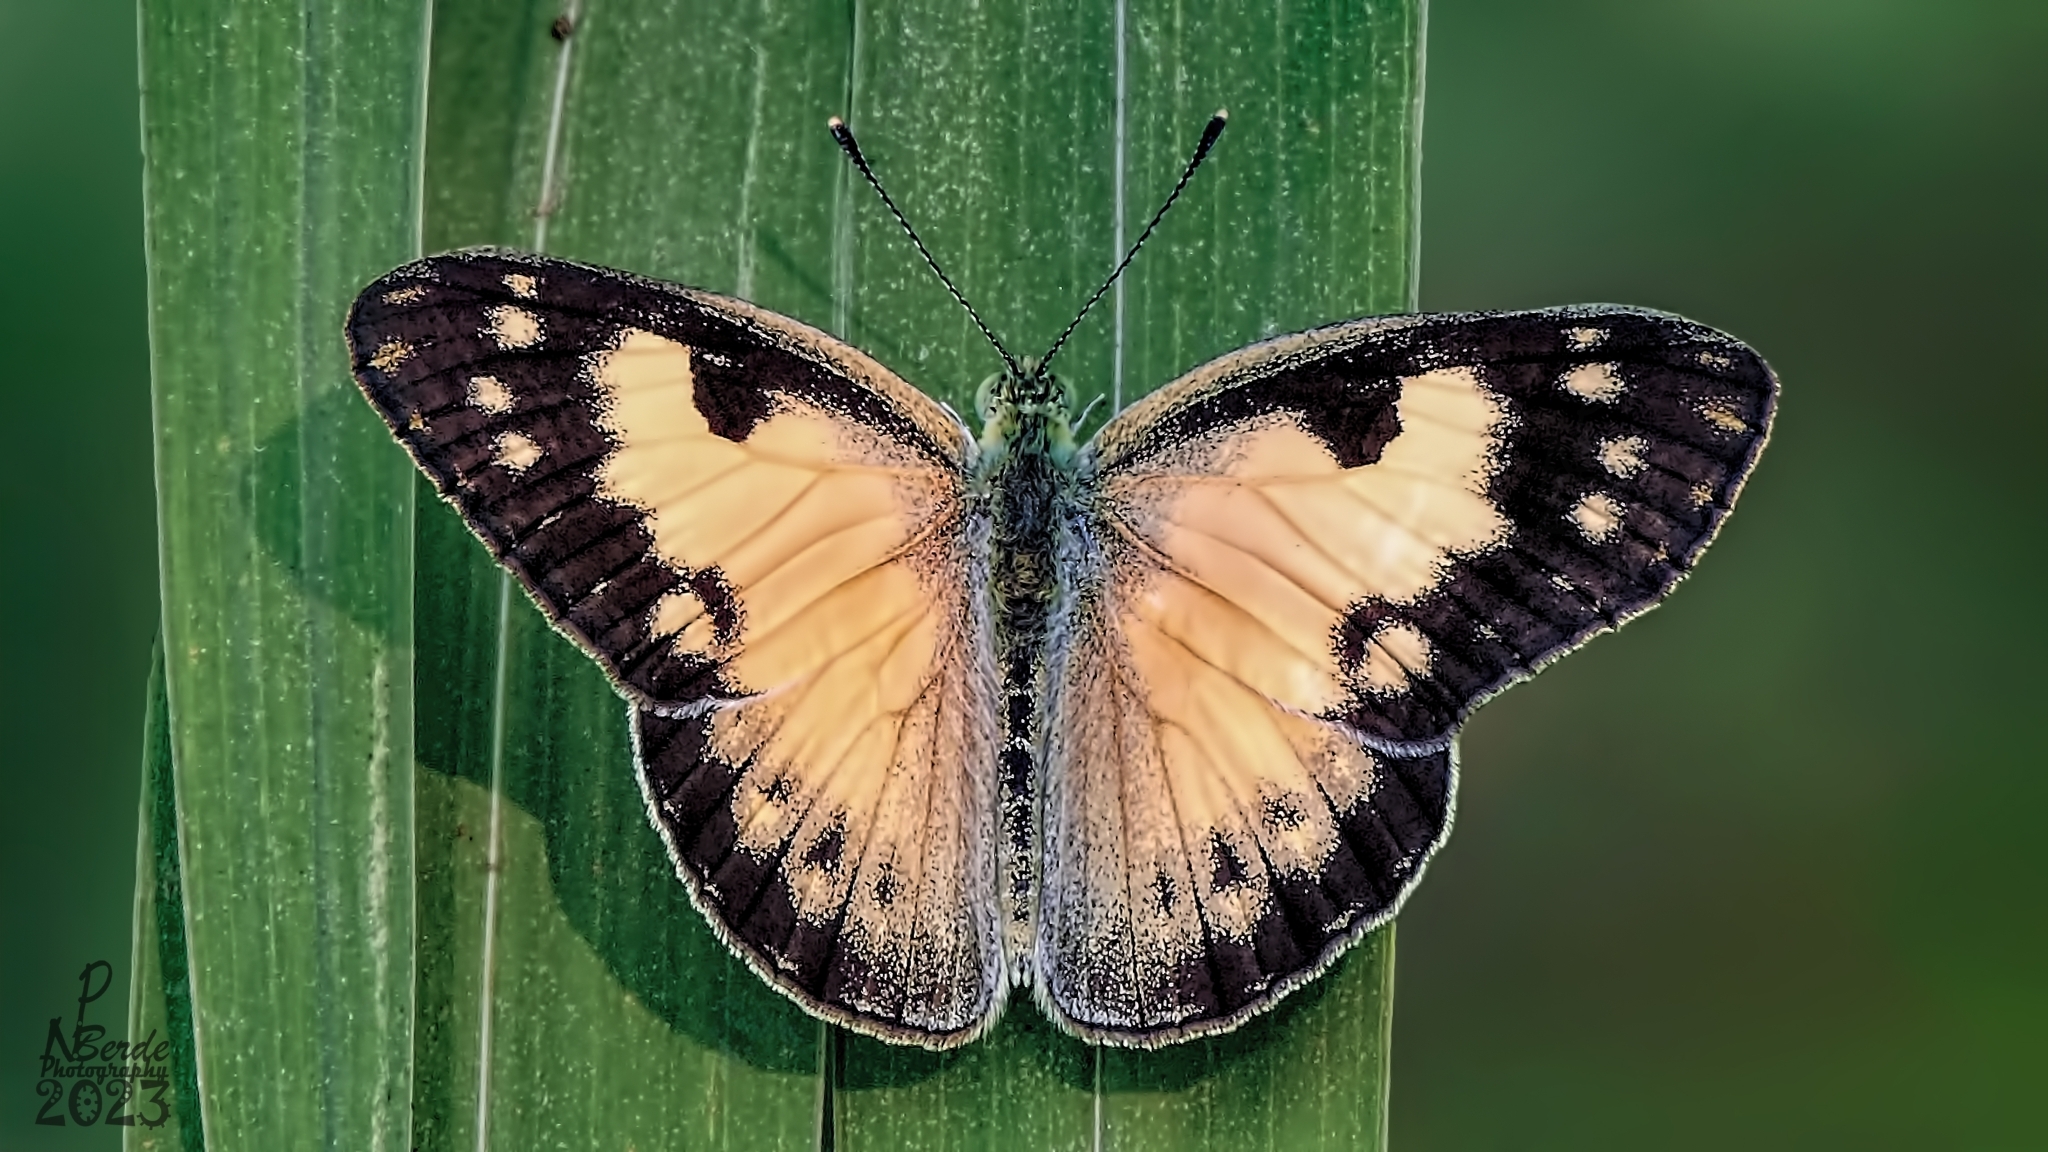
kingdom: Animalia
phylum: Arthropoda
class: Insecta
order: Lepidoptera
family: Pieridae
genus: Colotis
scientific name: Colotis amata
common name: Small salmon arab
